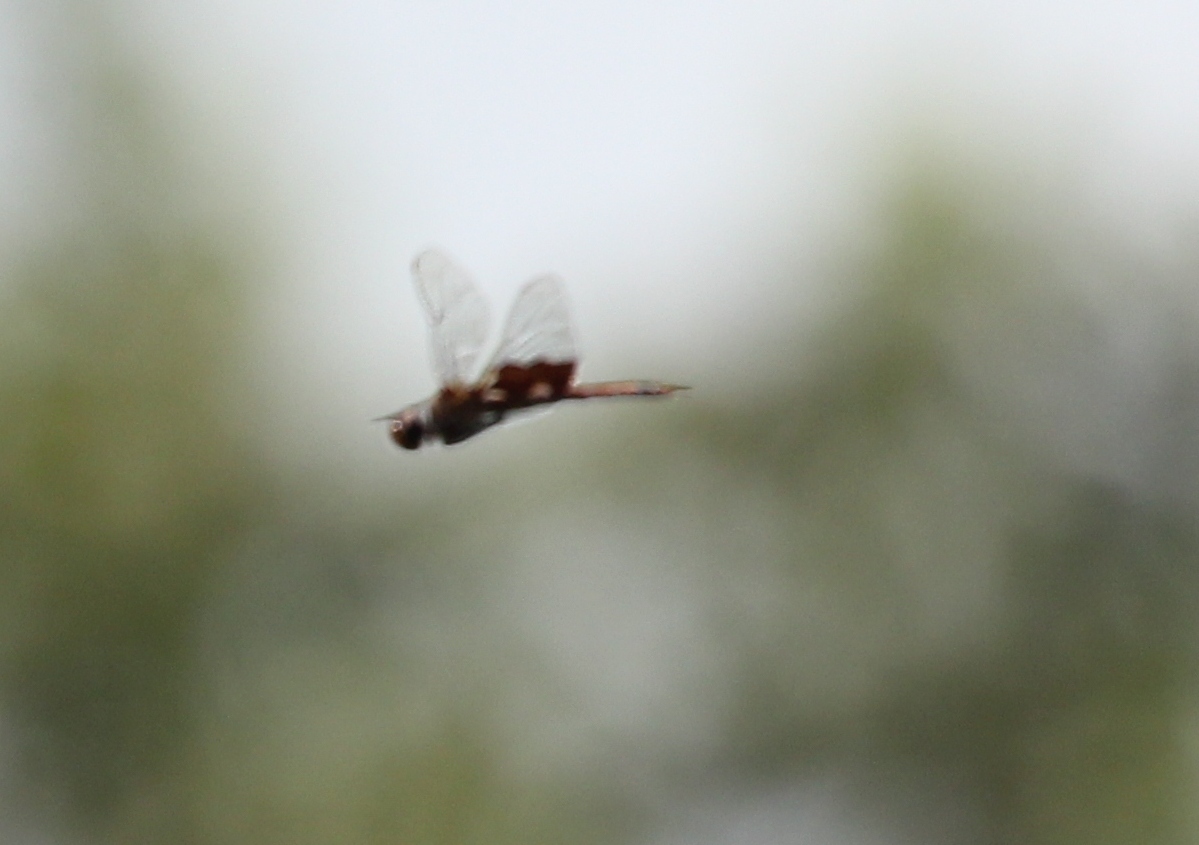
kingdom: Animalia
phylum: Arthropoda
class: Insecta
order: Odonata
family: Libellulidae
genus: Tramea
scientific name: Tramea carolina
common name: Carolina saddlebags
